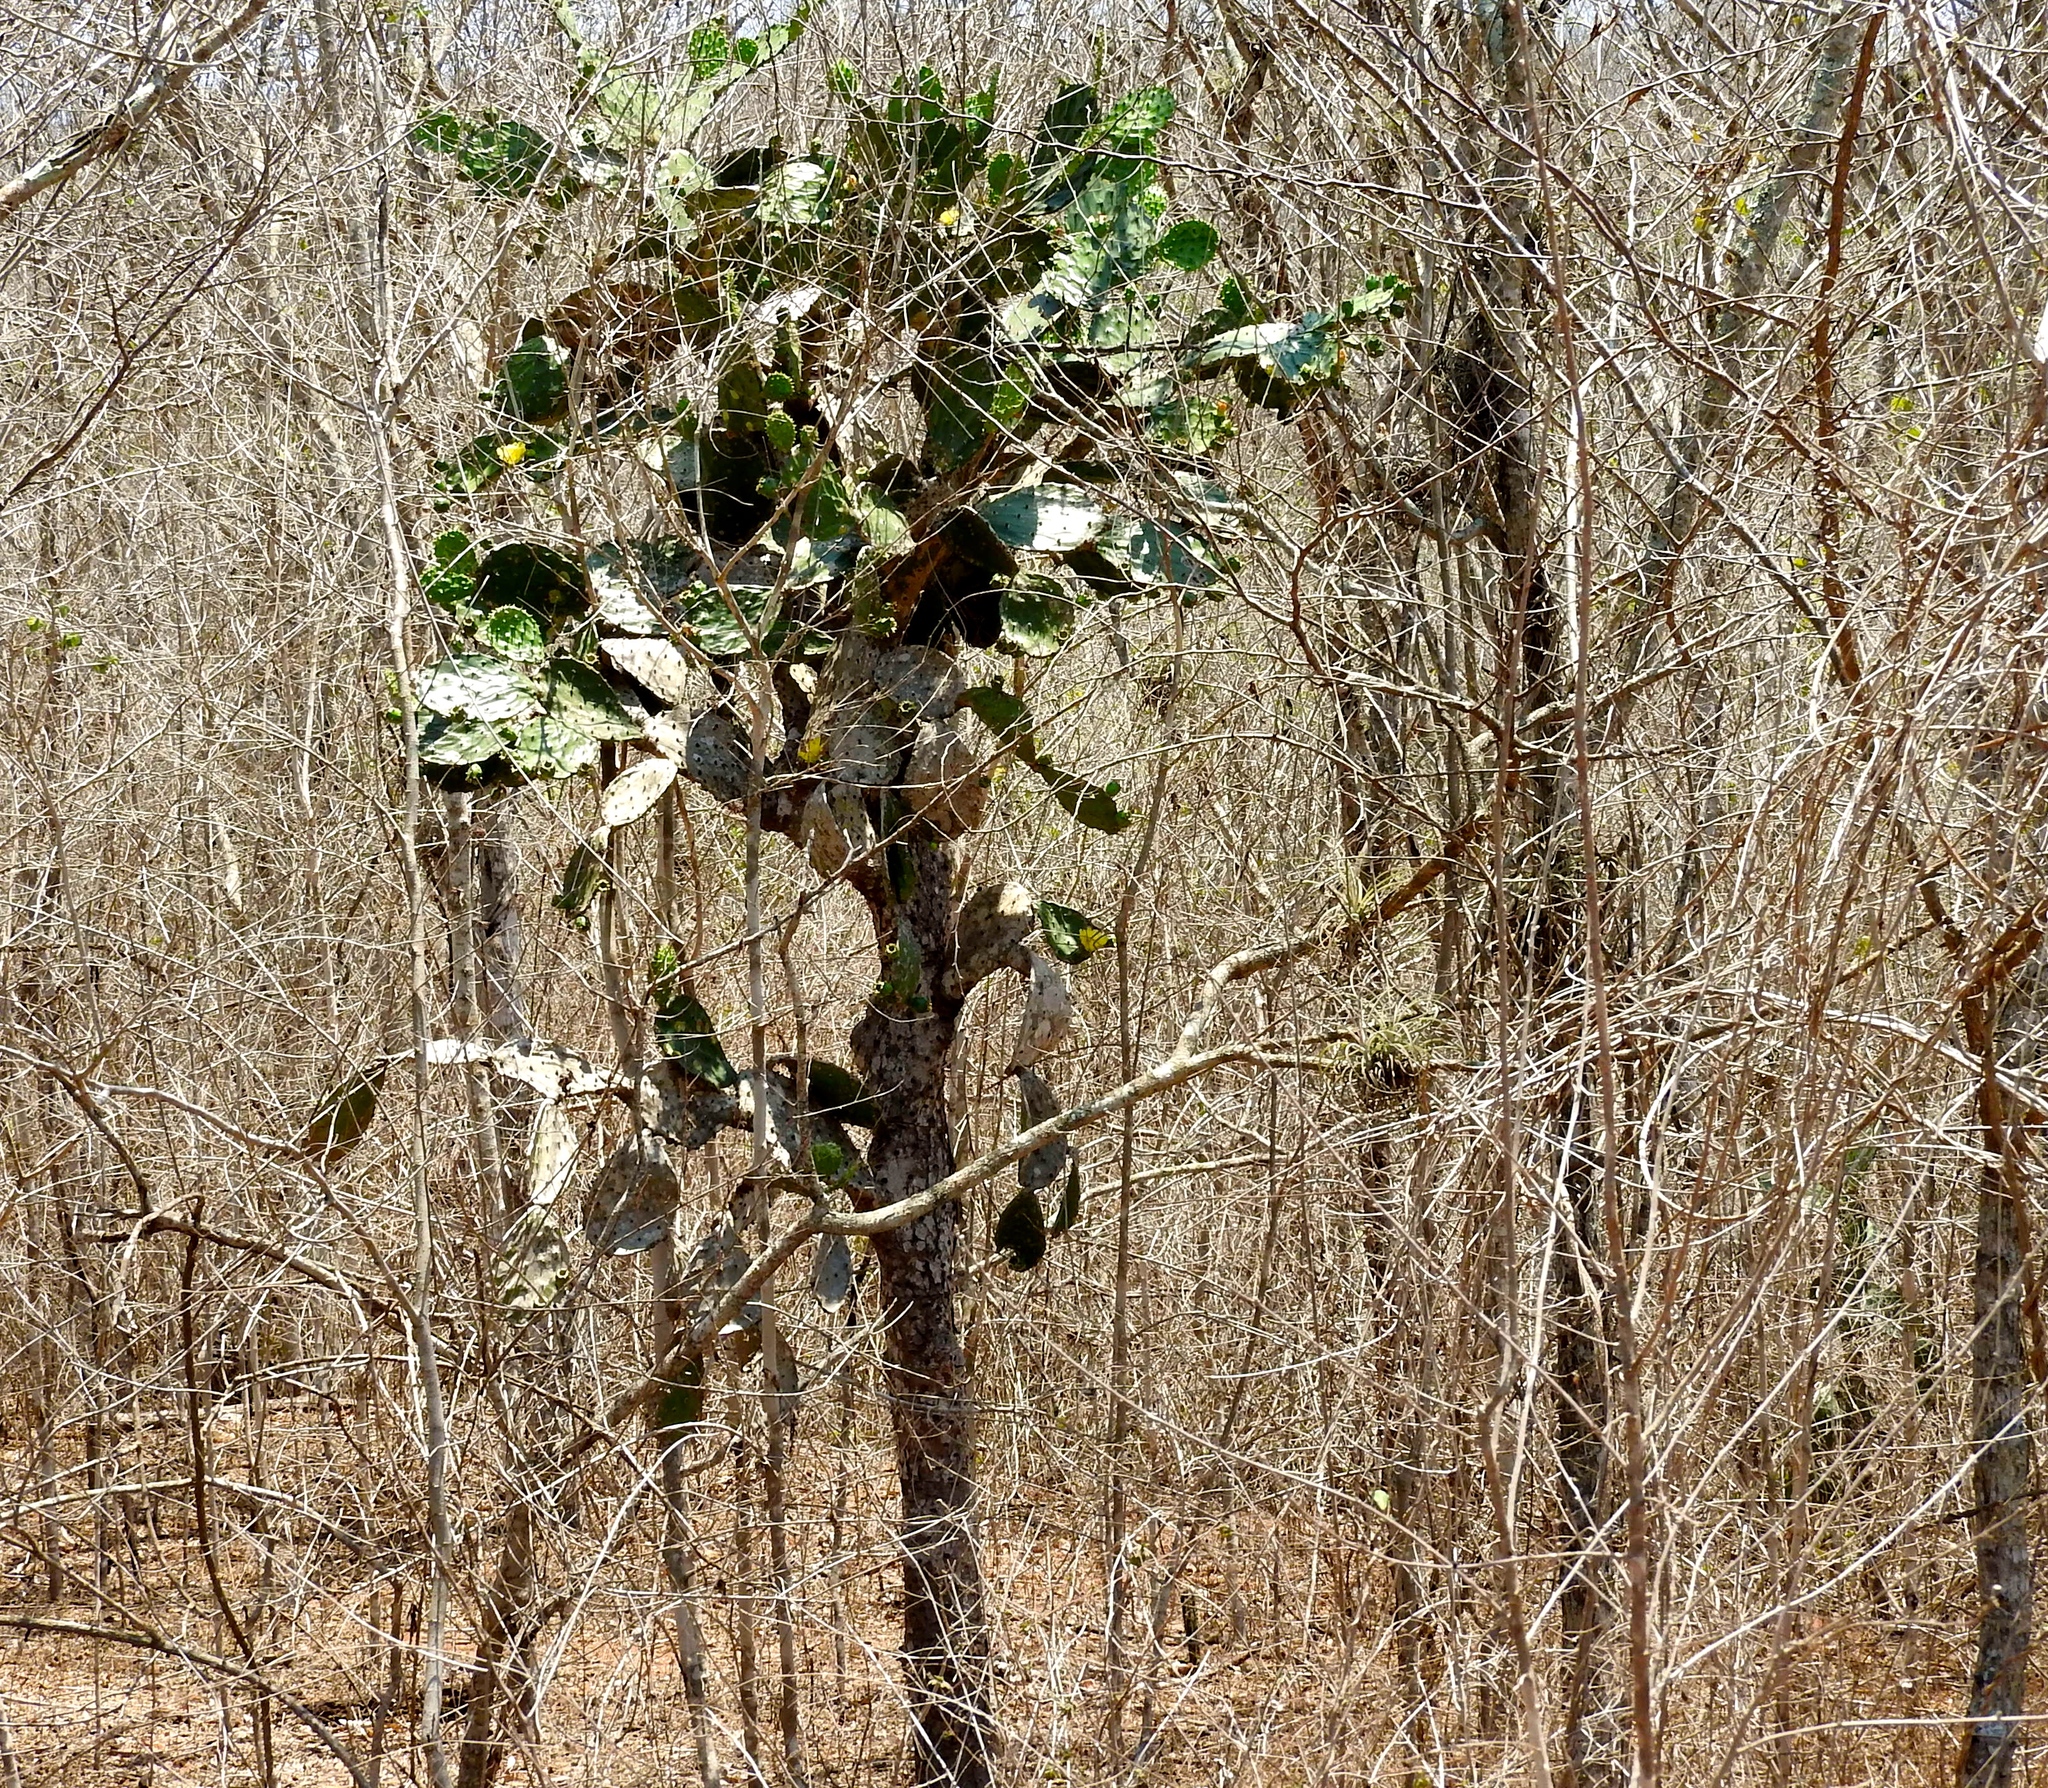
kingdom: Plantae
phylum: Tracheophyta
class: Magnoliopsida
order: Caryophyllales
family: Cactaceae
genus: Opuntia
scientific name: Opuntia
